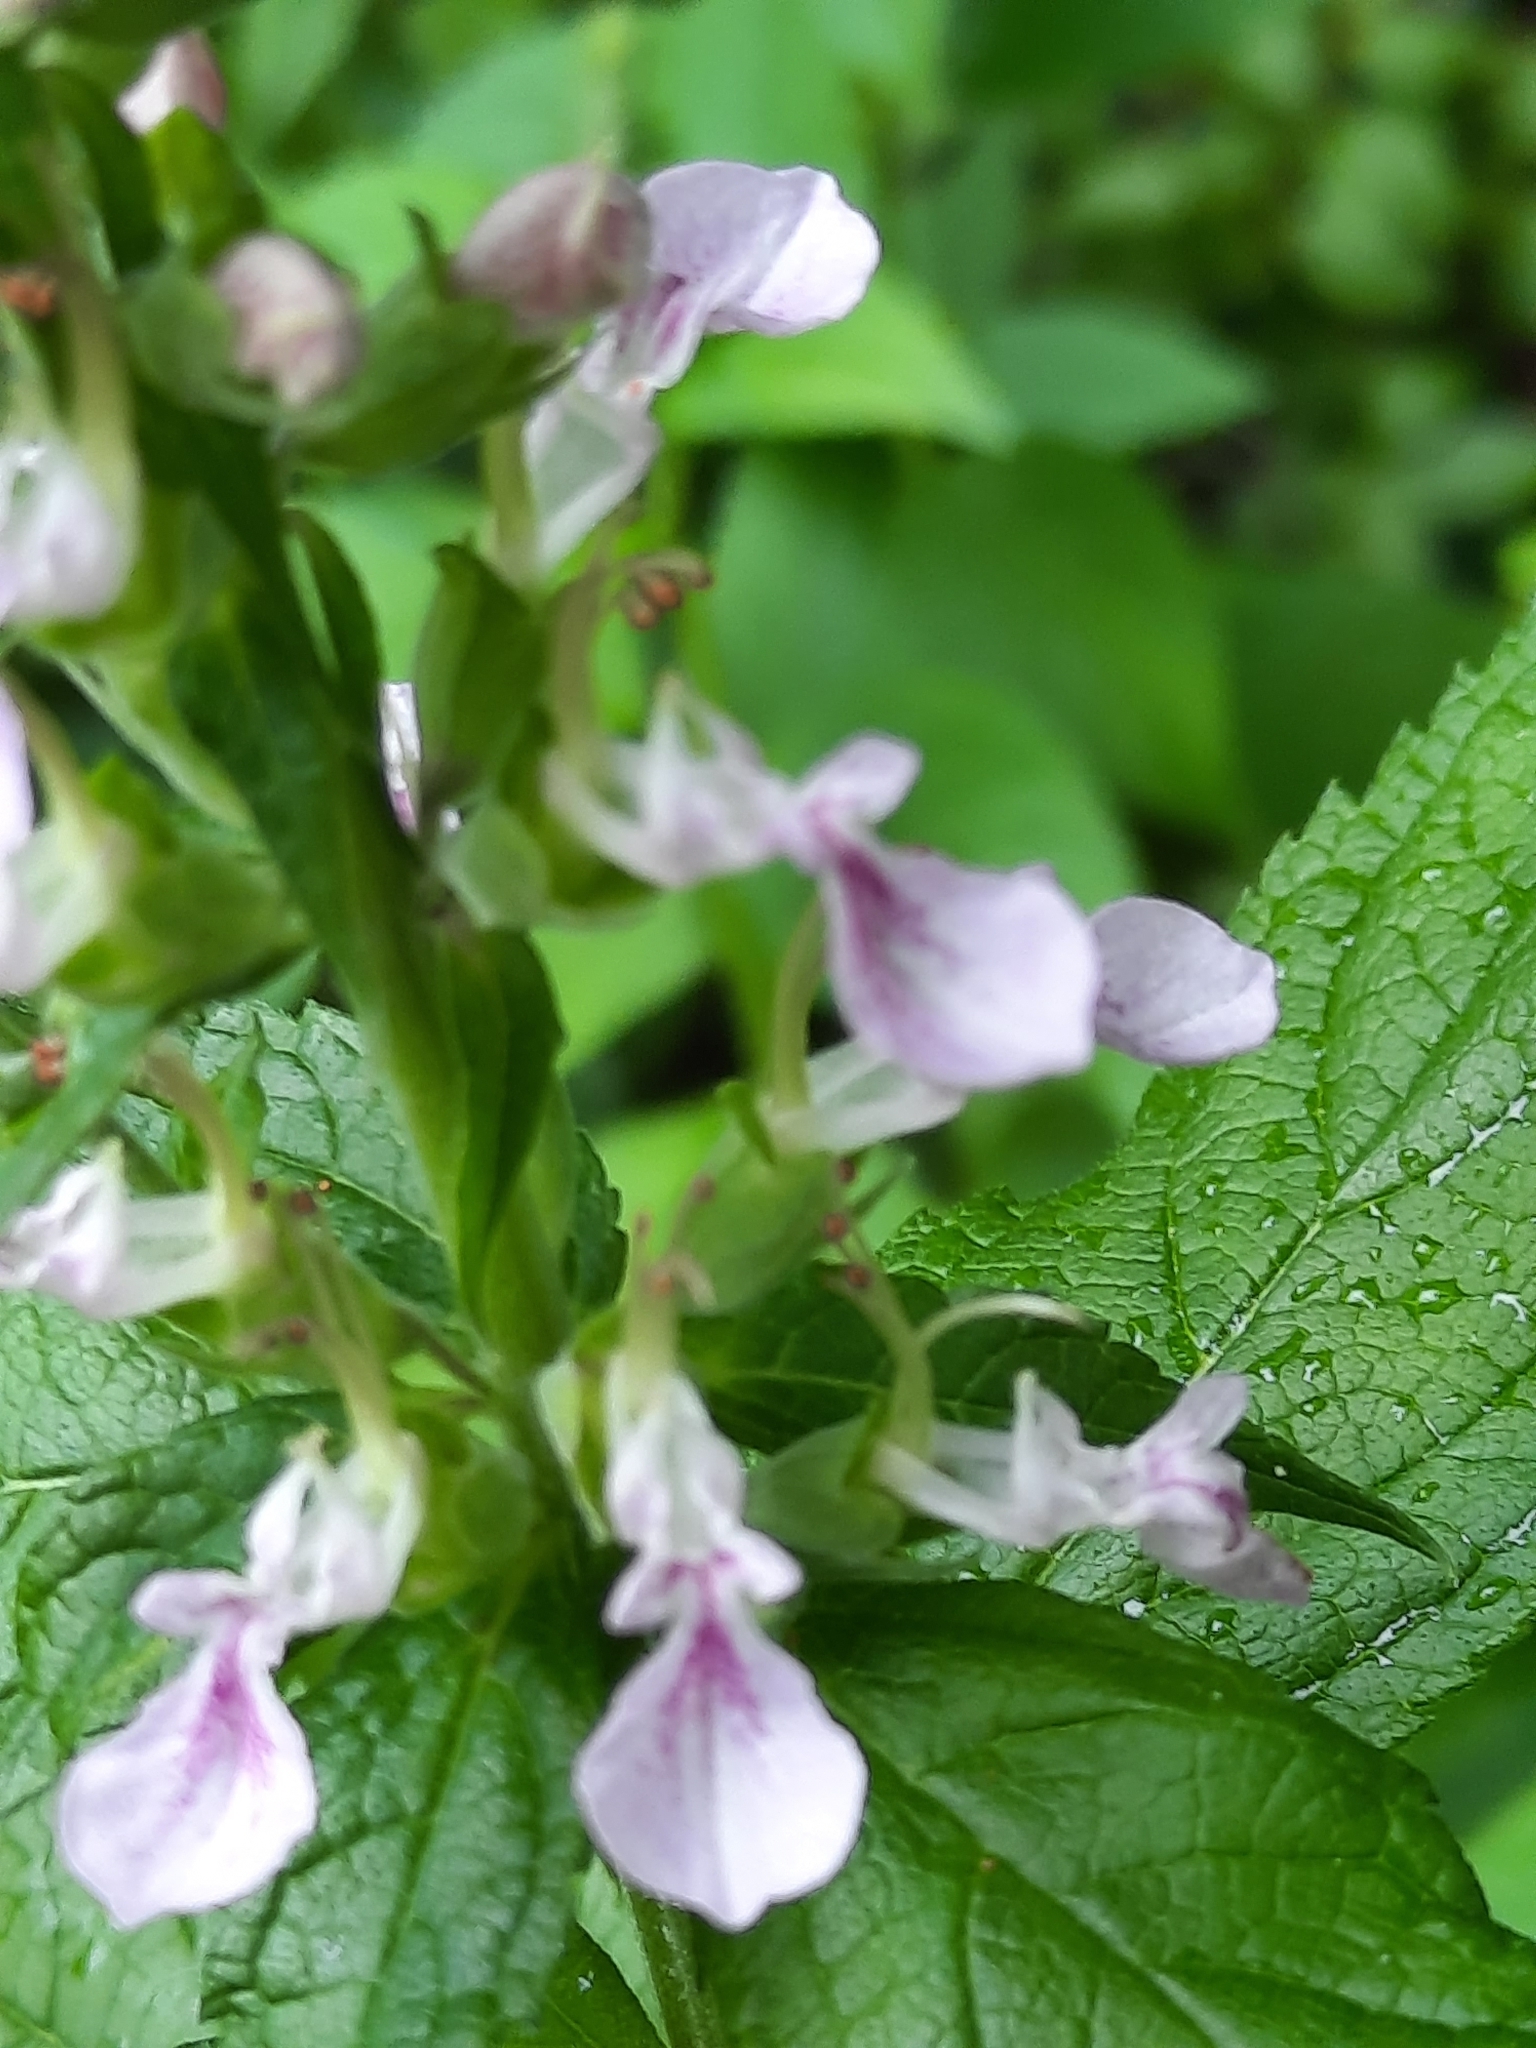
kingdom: Plantae
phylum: Tracheophyta
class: Magnoliopsida
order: Lamiales
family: Lamiaceae
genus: Teucrium
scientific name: Teucrium canadense
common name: American germander
